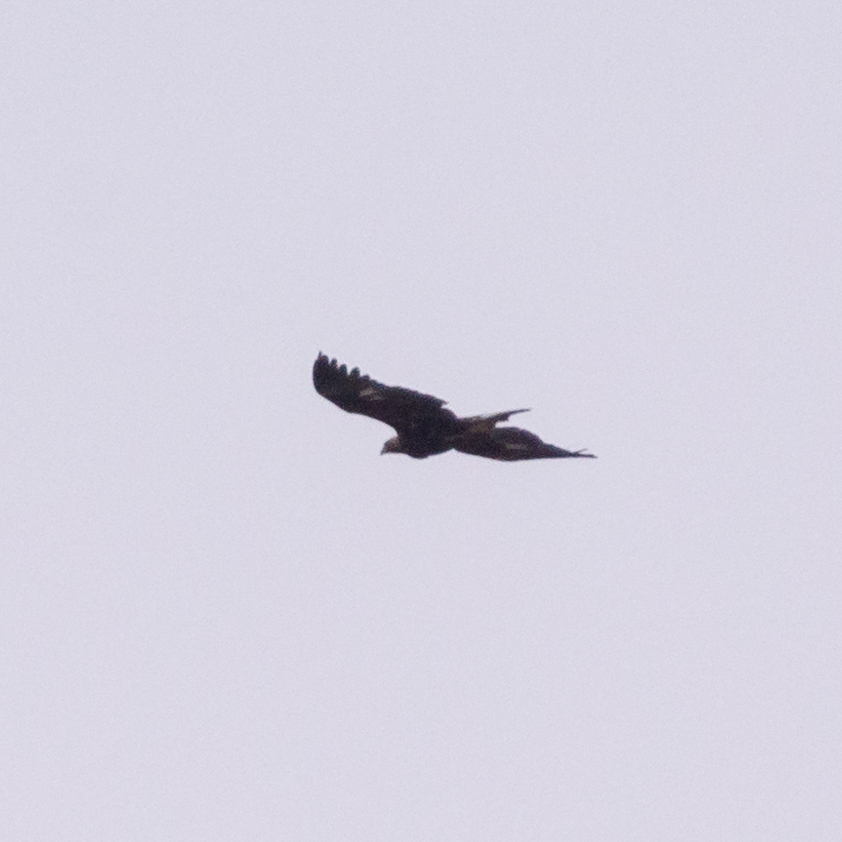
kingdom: Animalia
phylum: Chordata
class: Aves
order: Accipitriformes
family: Accipitridae
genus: Aquila
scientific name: Aquila chrysaetos
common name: Golden eagle
